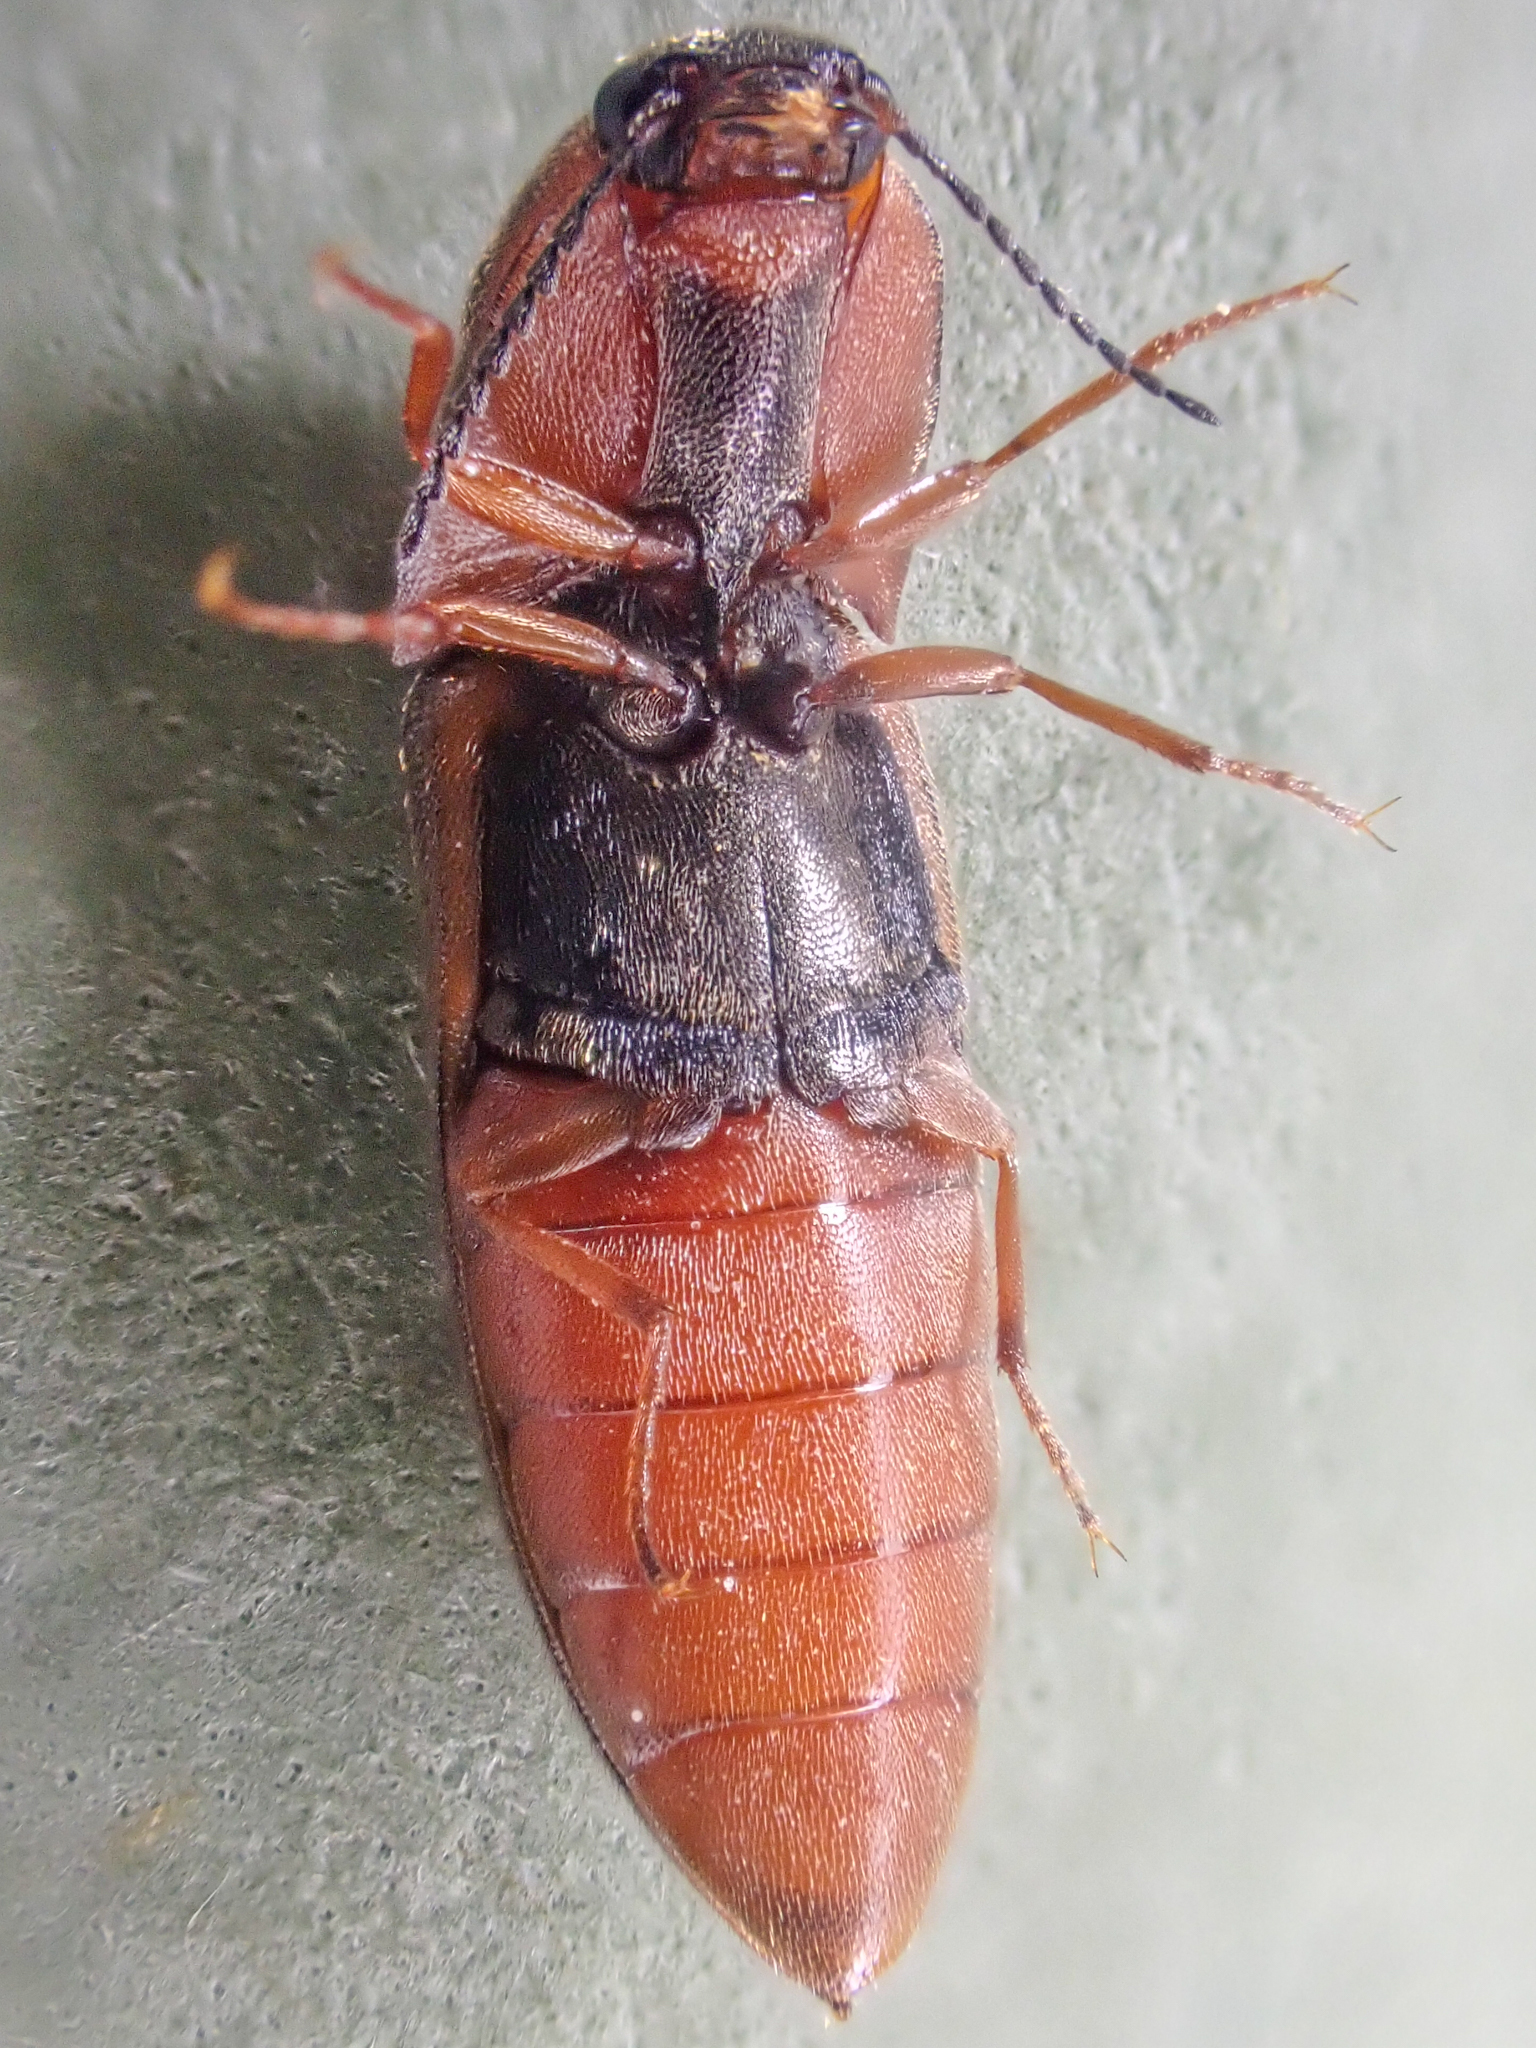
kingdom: Animalia
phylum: Arthropoda
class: Insecta
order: Coleoptera
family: Elateridae
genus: Sericus
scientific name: Sericus incongruus
